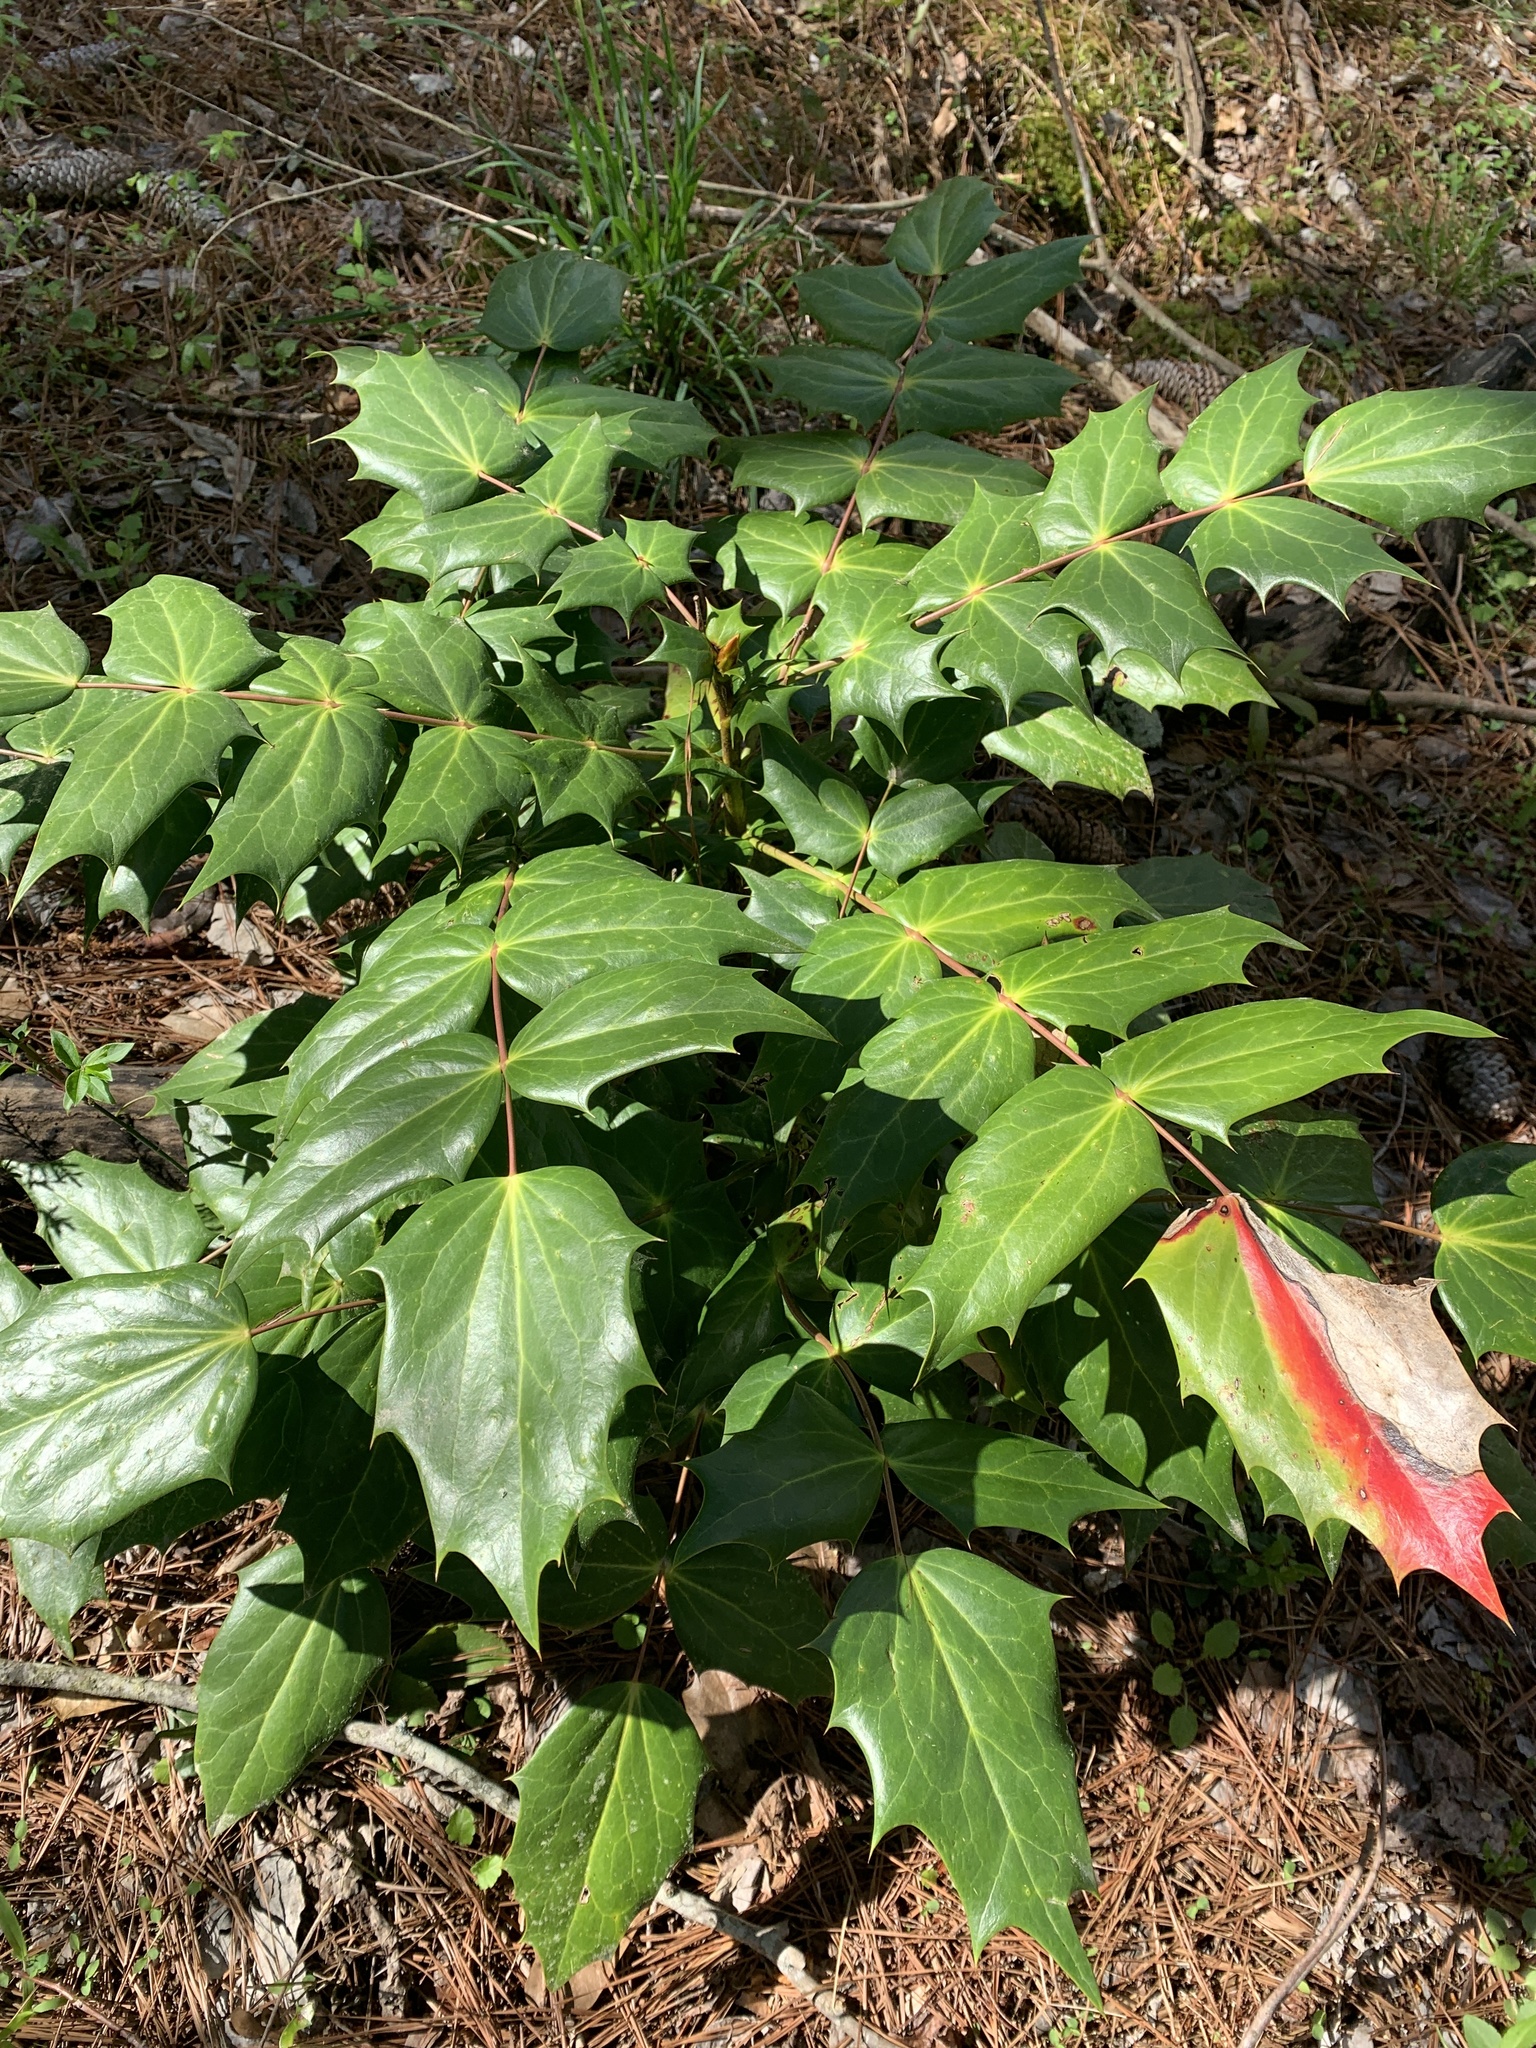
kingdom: Plantae
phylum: Tracheophyta
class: Magnoliopsida
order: Ranunculales
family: Berberidaceae
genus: Mahonia
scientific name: Mahonia bealei
